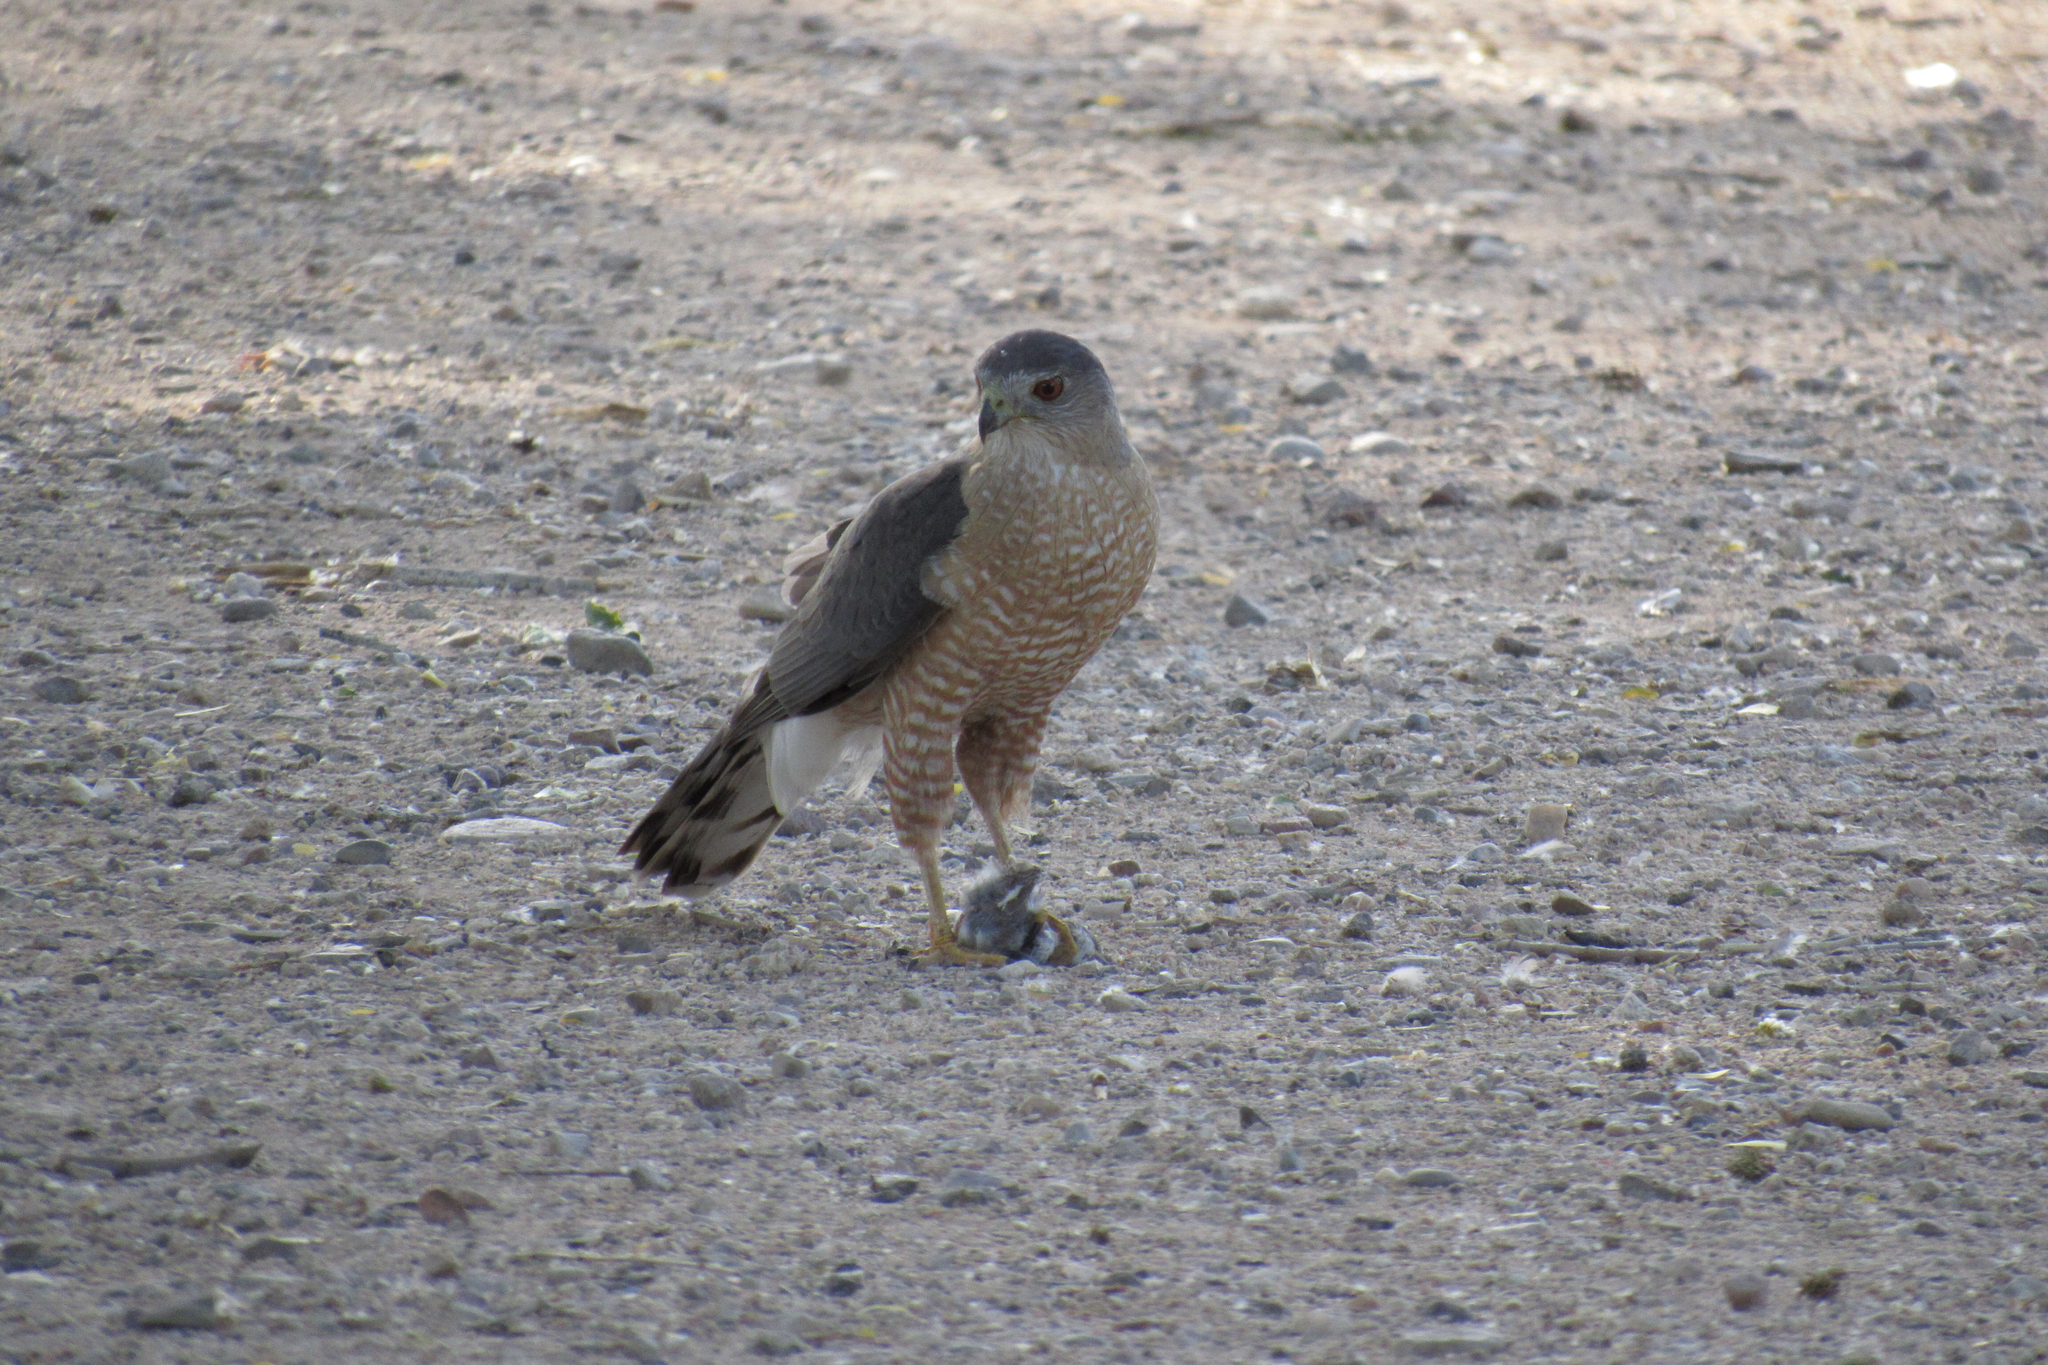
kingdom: Animalia
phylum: Chordata
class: Aves
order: Accipitriformes
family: Accipitridae
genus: Accipiter
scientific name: Accipiter cooperii
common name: Cooper's hawk
